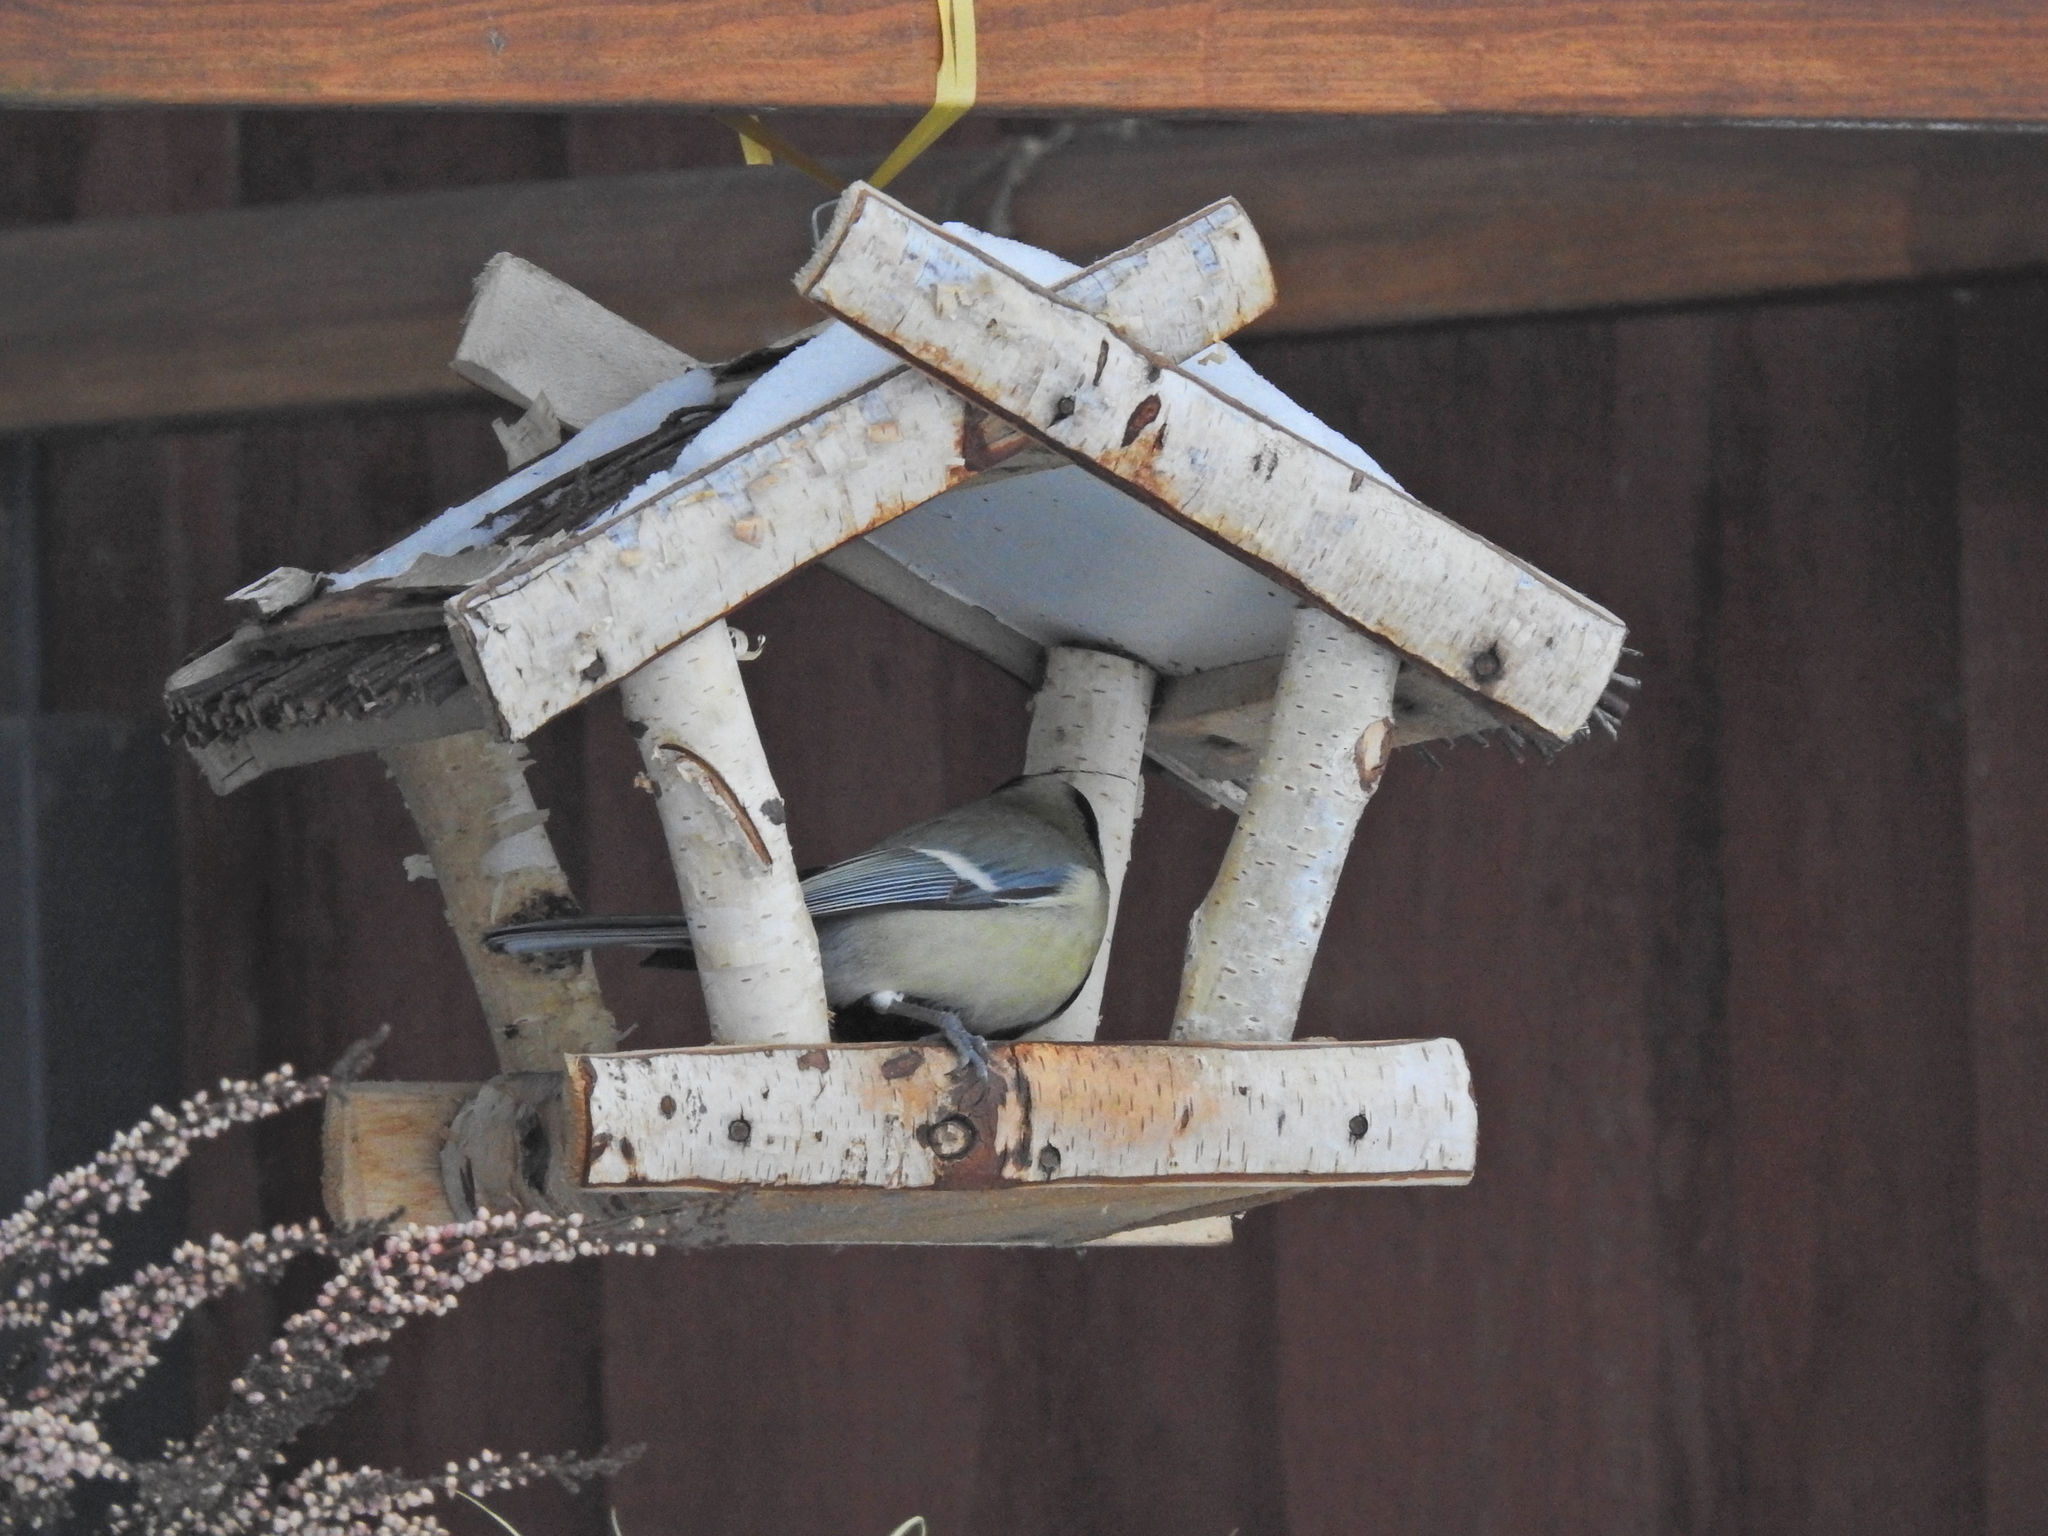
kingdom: Animalia
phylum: Chordata
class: Aves
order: Passeriformes
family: Paridae
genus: Parus
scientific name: Parus major
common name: Great tit
